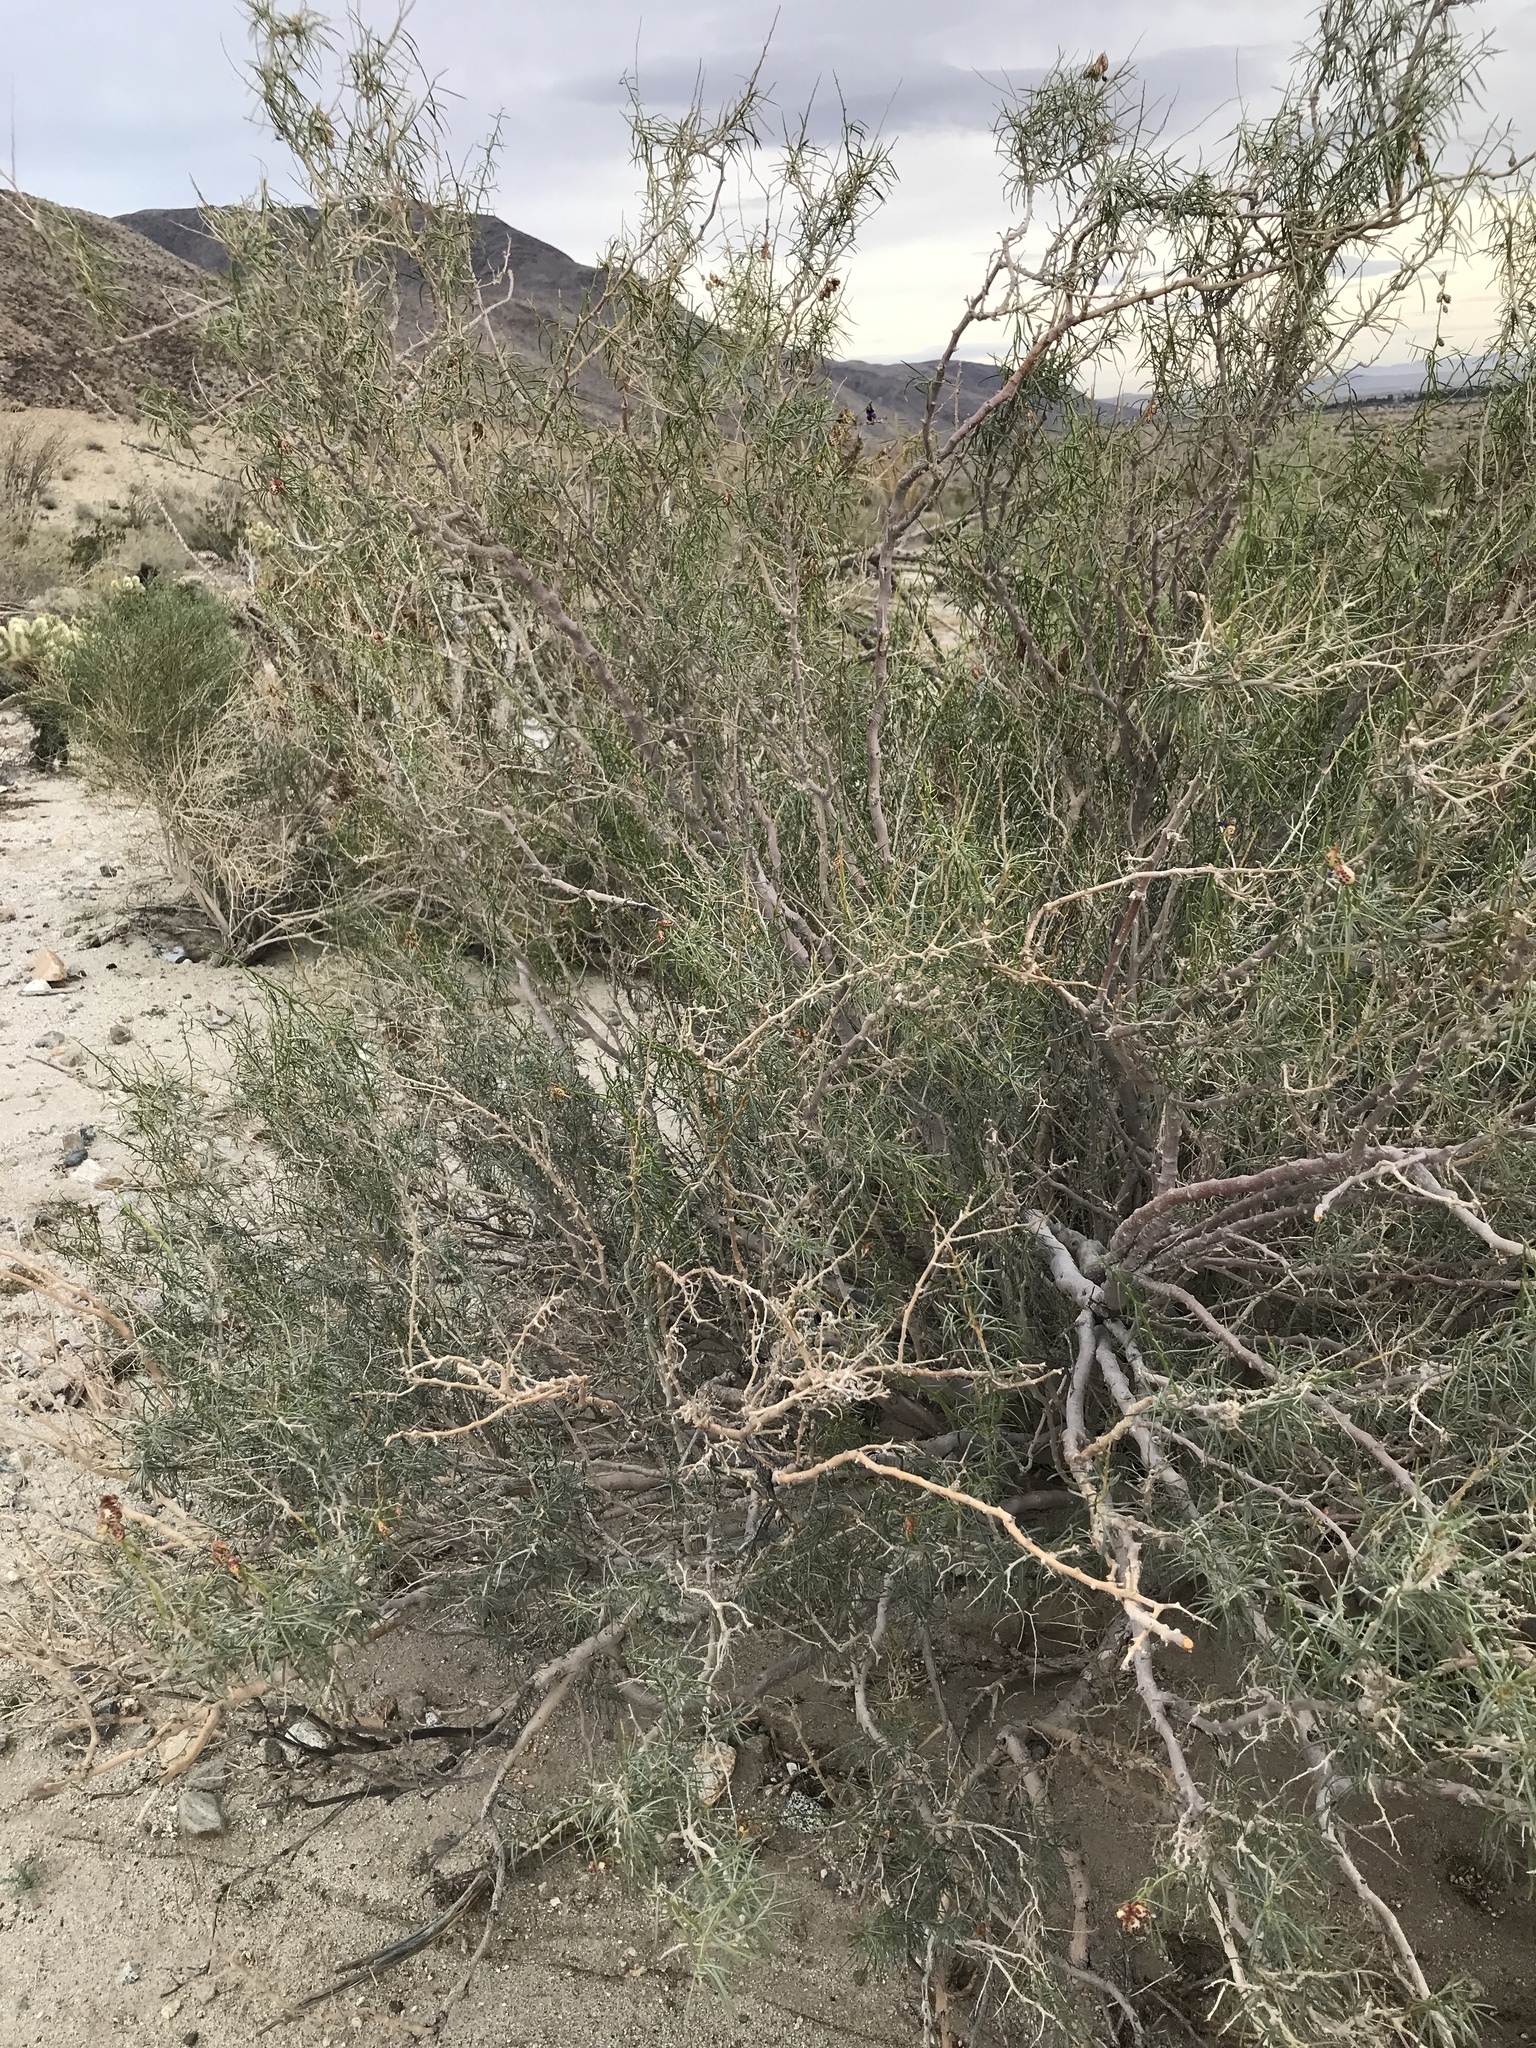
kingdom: Plantae
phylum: Tracheophyta
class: Magnoliopsida
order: Fabales
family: Fabaceae
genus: Psorothamnus
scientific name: Psorothamnus schottii
